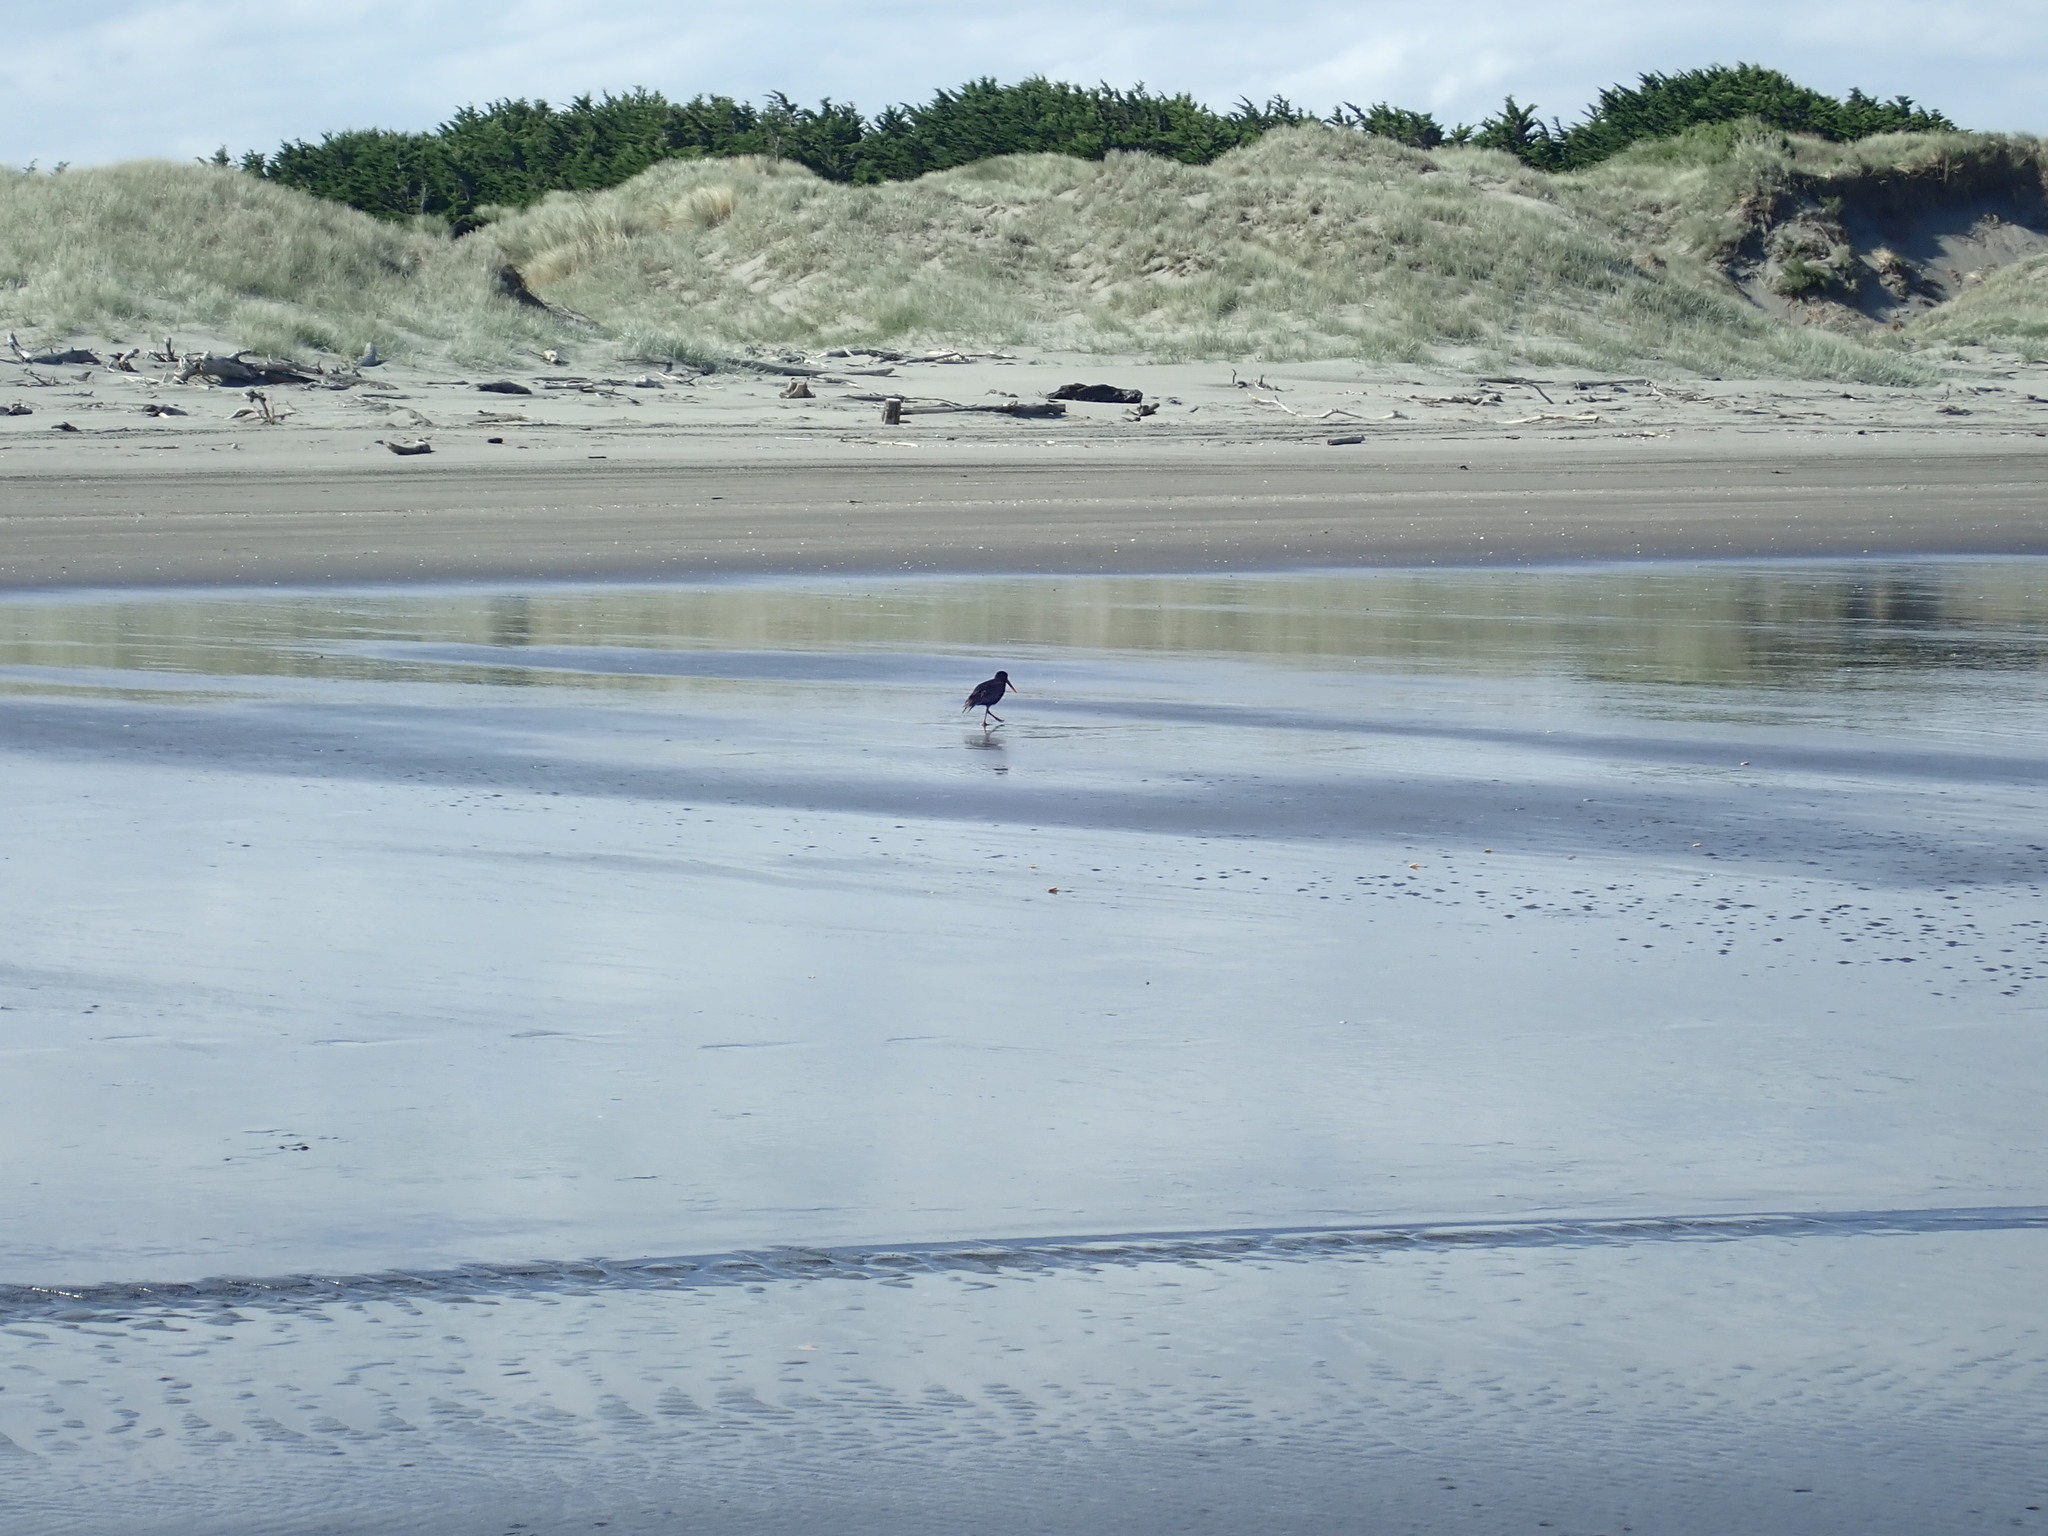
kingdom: Animalia
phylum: Chordata
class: Aves
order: Charadriiformes
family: Haematopodidae
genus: Haematopus
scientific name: Haematopus unicolor
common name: Variable oystercatcher
